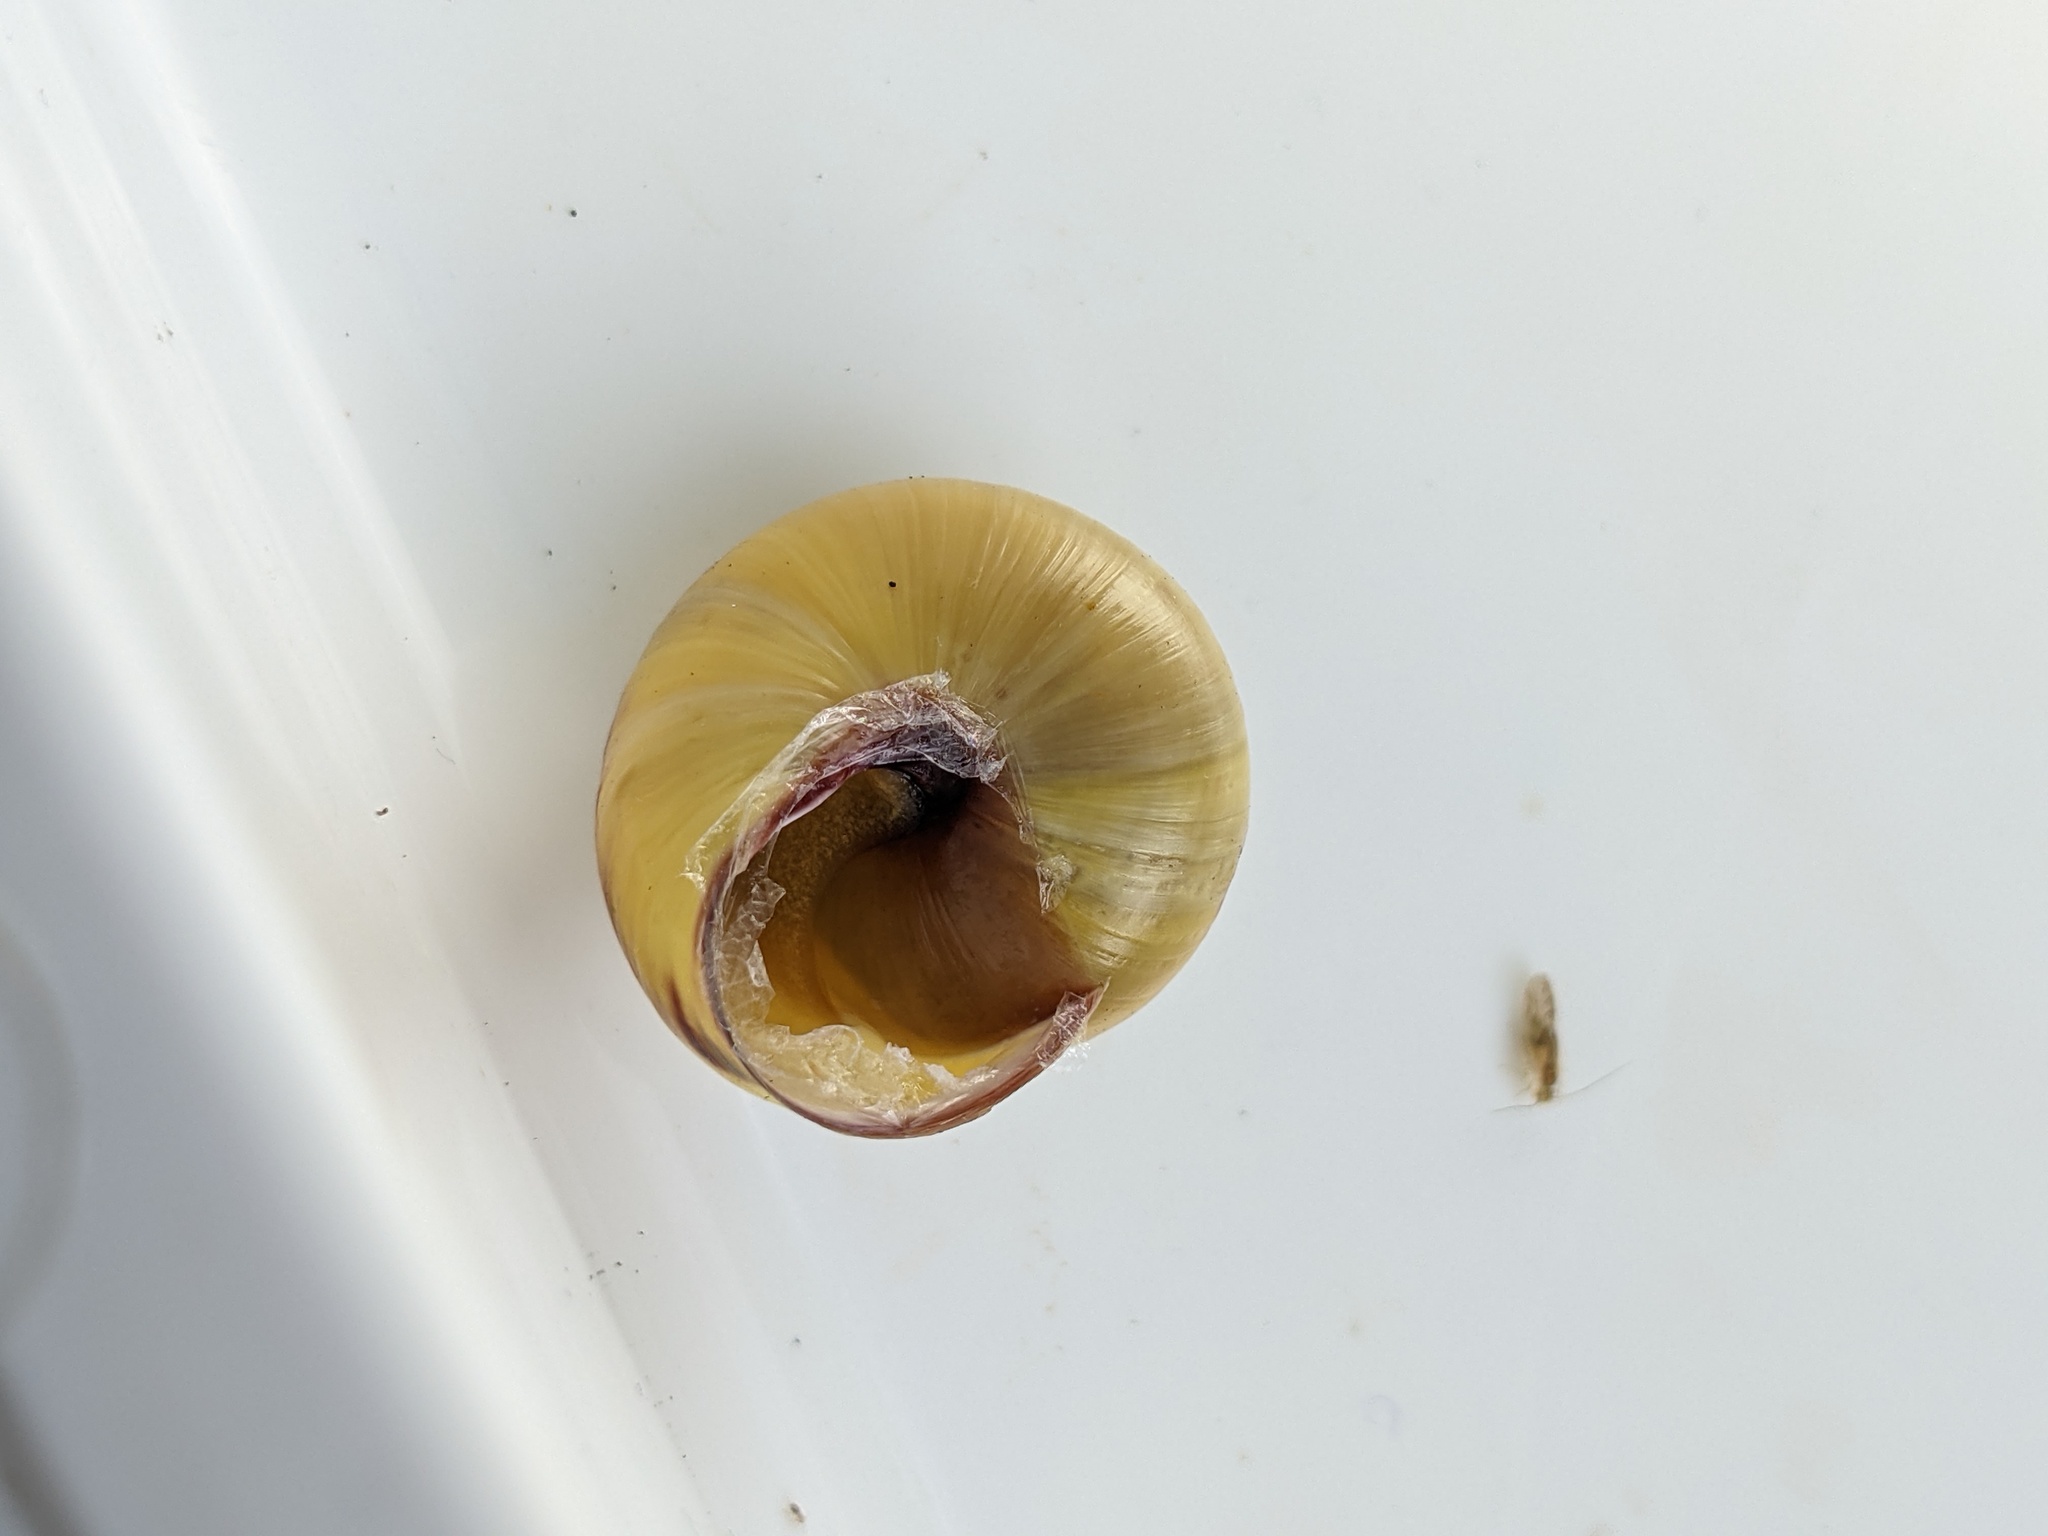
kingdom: Animalia
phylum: Mollusca
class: Gastropoda
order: Stylommatophora
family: Helicidae
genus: Cepaea
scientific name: Cepaea nemoralis
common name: Grovesnail
